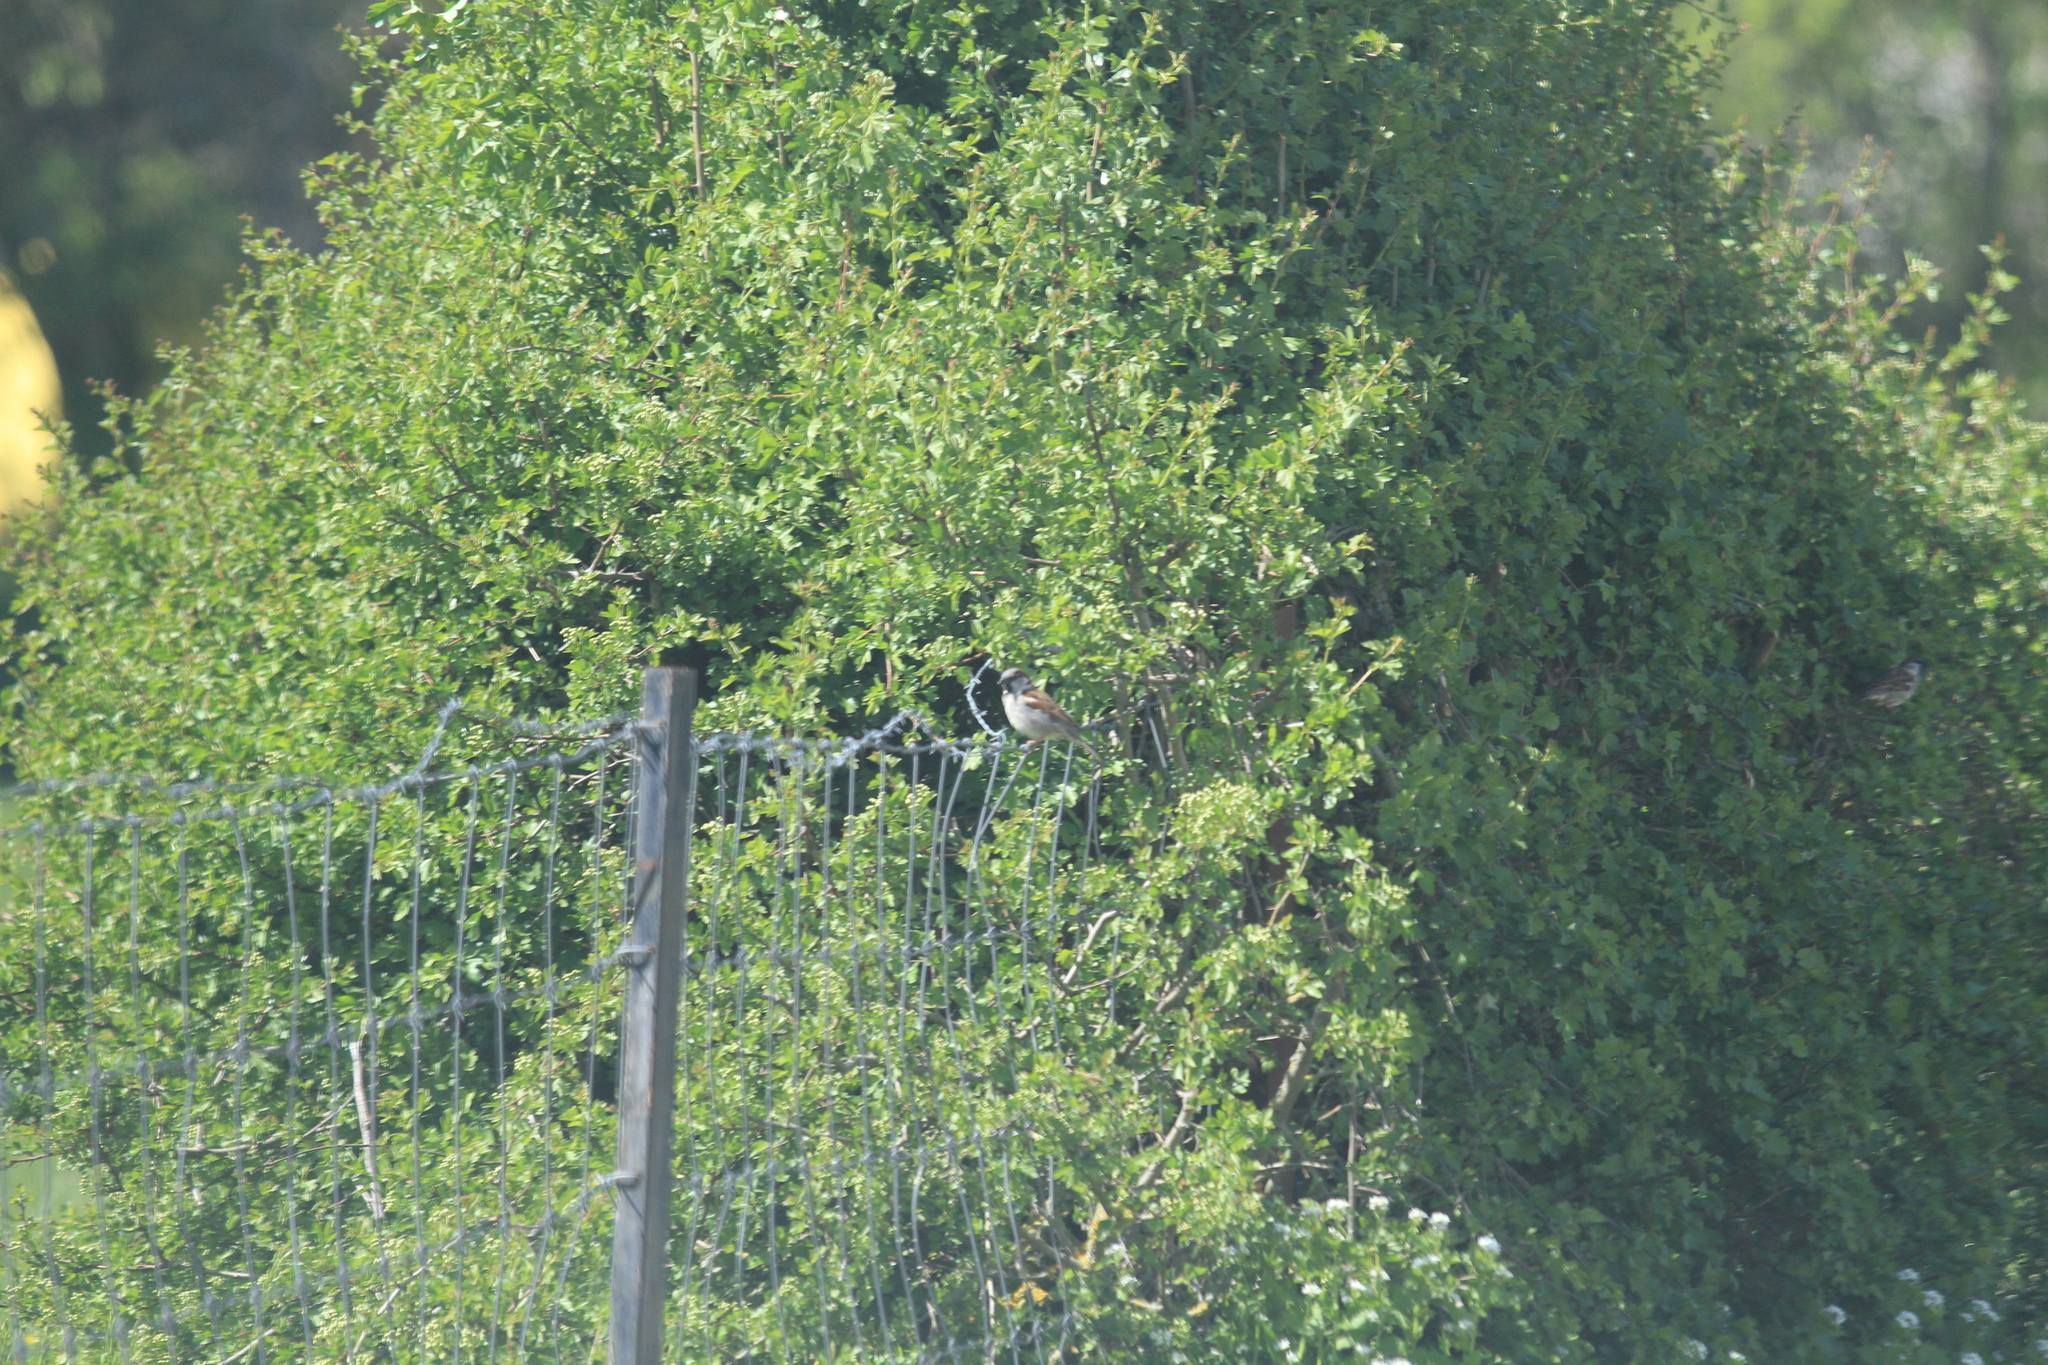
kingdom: Animalia
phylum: Chordata
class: Aves
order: Passeriformes
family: Passeridae
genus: Passer
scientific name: Passer domesticus
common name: House sparrow
